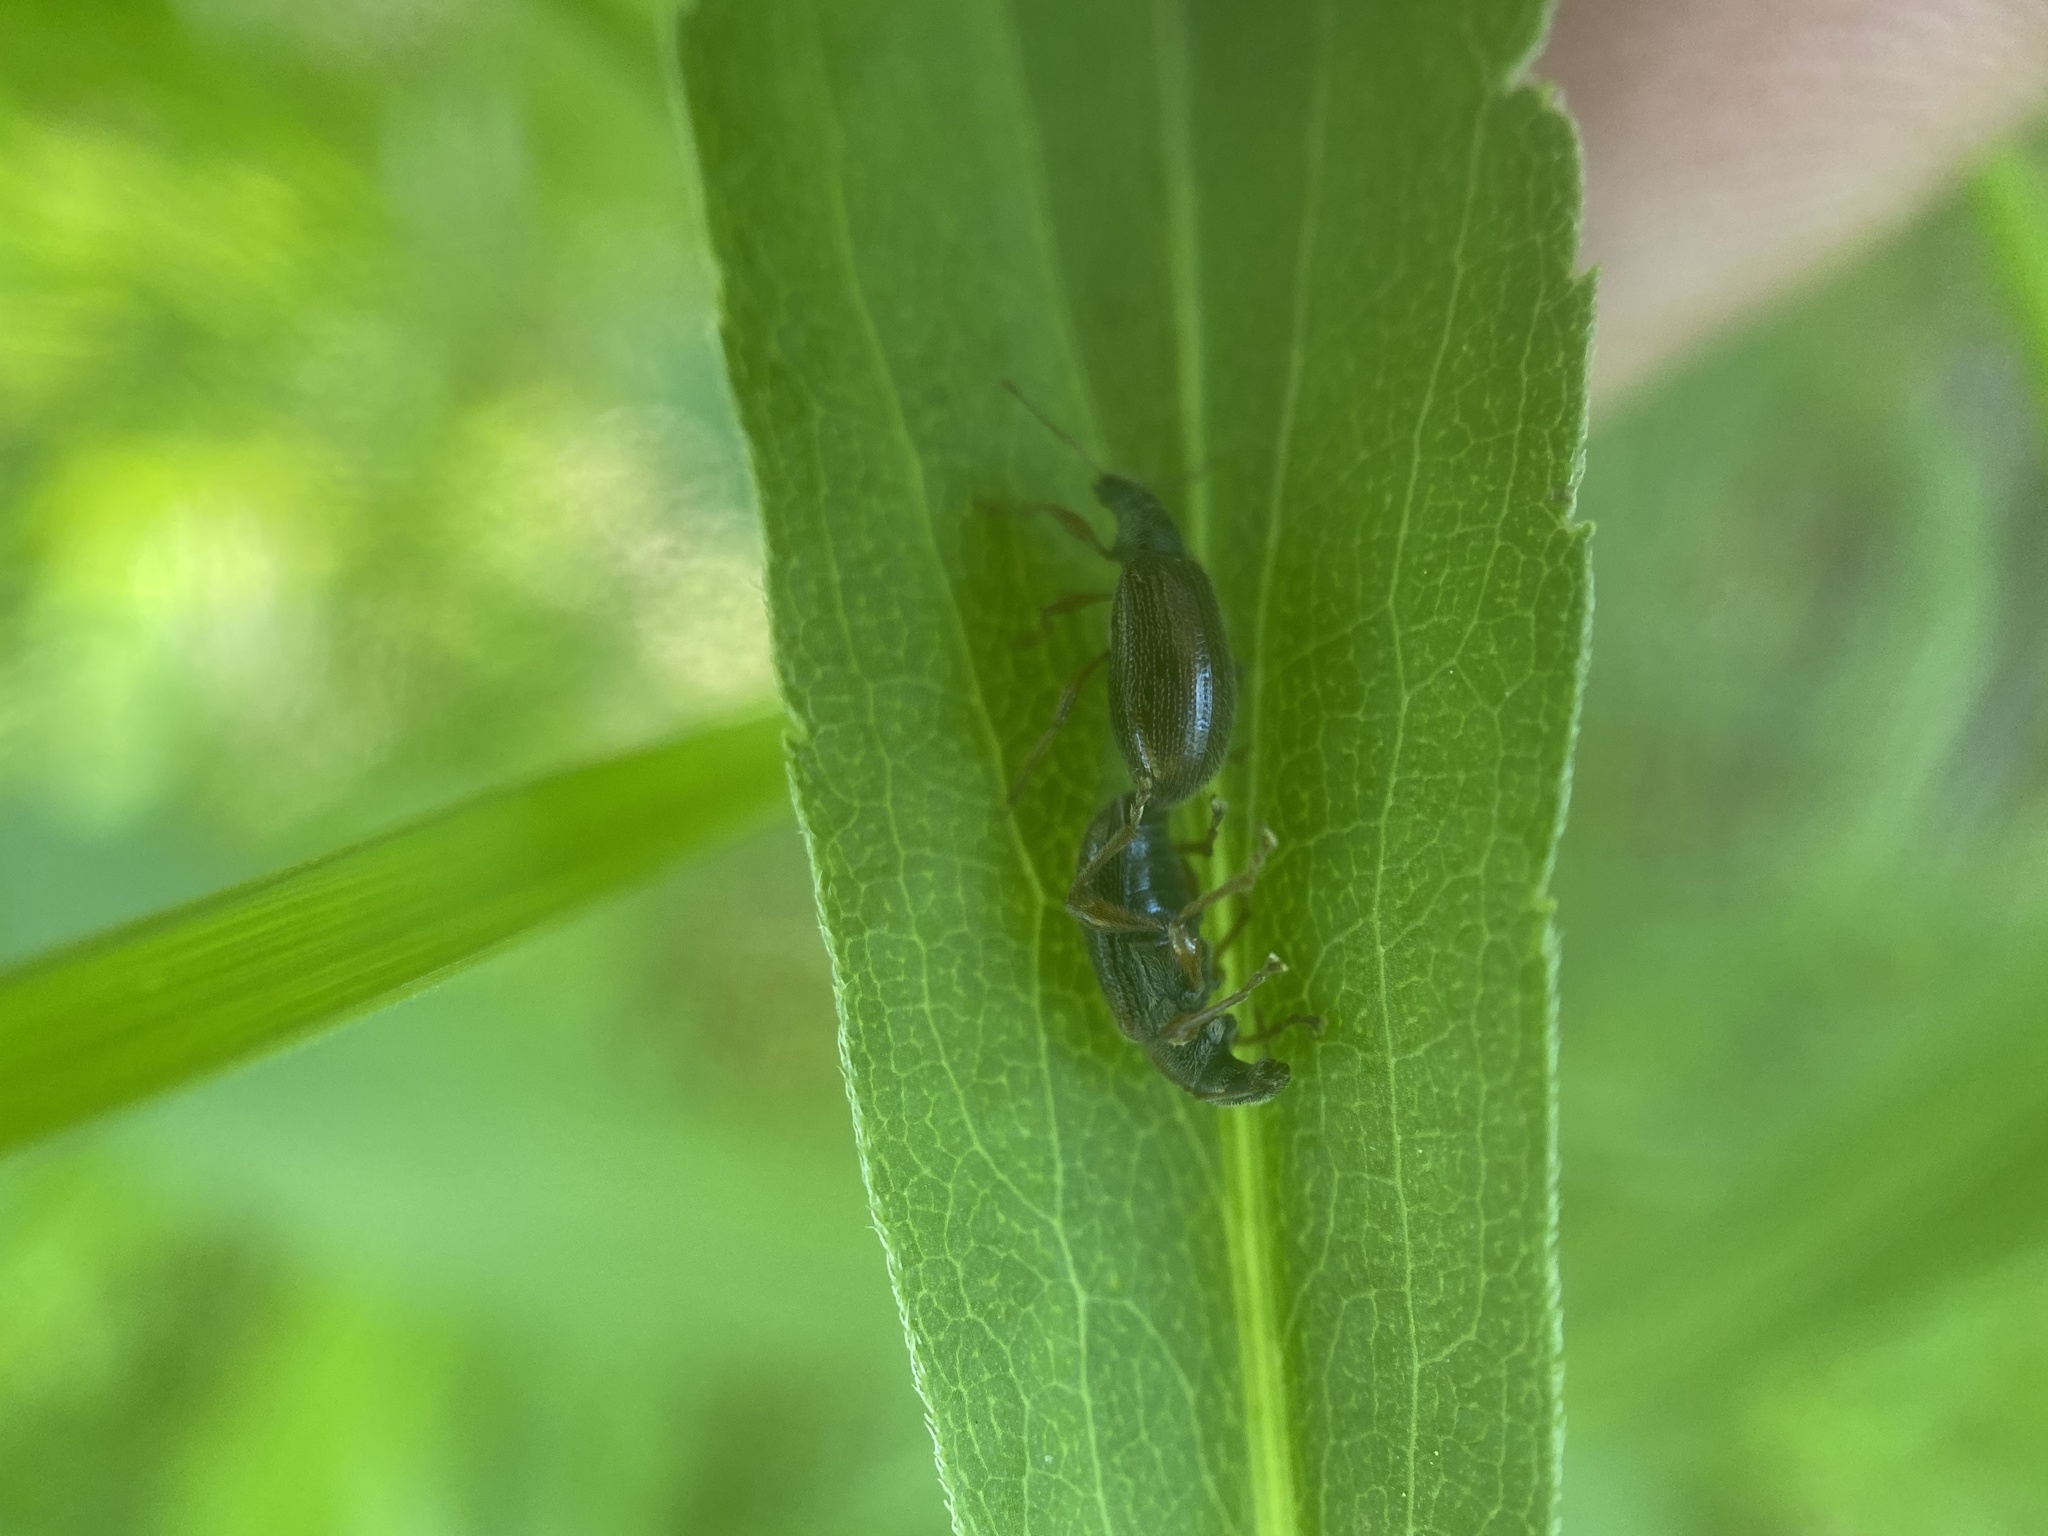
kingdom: Animalia
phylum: Arthropoda
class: Insecta
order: Coleoptera
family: Curculionidae
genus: Phyllobius
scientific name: Phyllobius oblongus
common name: Brown leaf weevil
